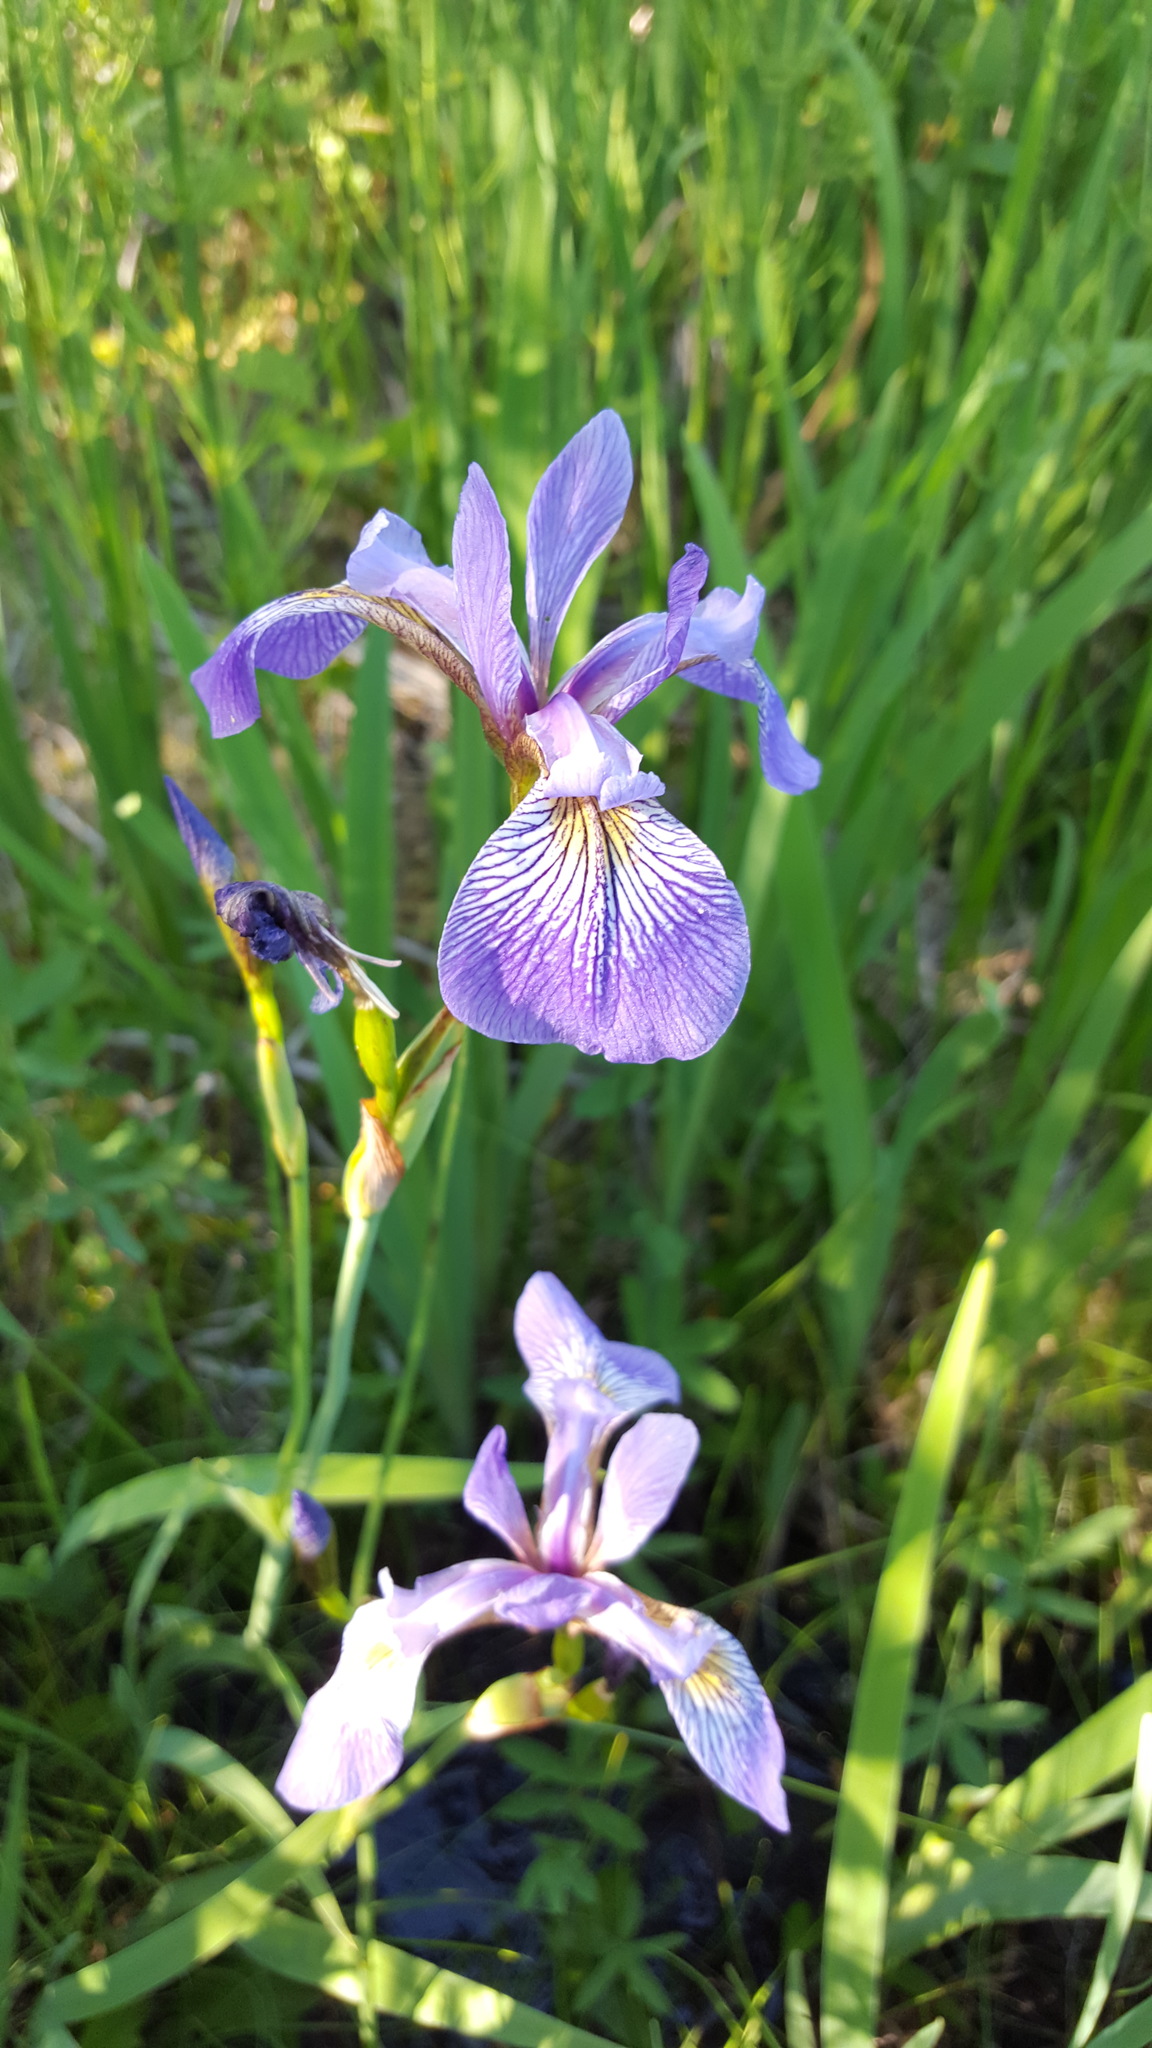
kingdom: Plantae
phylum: Tracheophyta
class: Liliopsida
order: Asparagales
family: Iridaceae
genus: Iris
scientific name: Iris versicolor
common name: Purple iris
